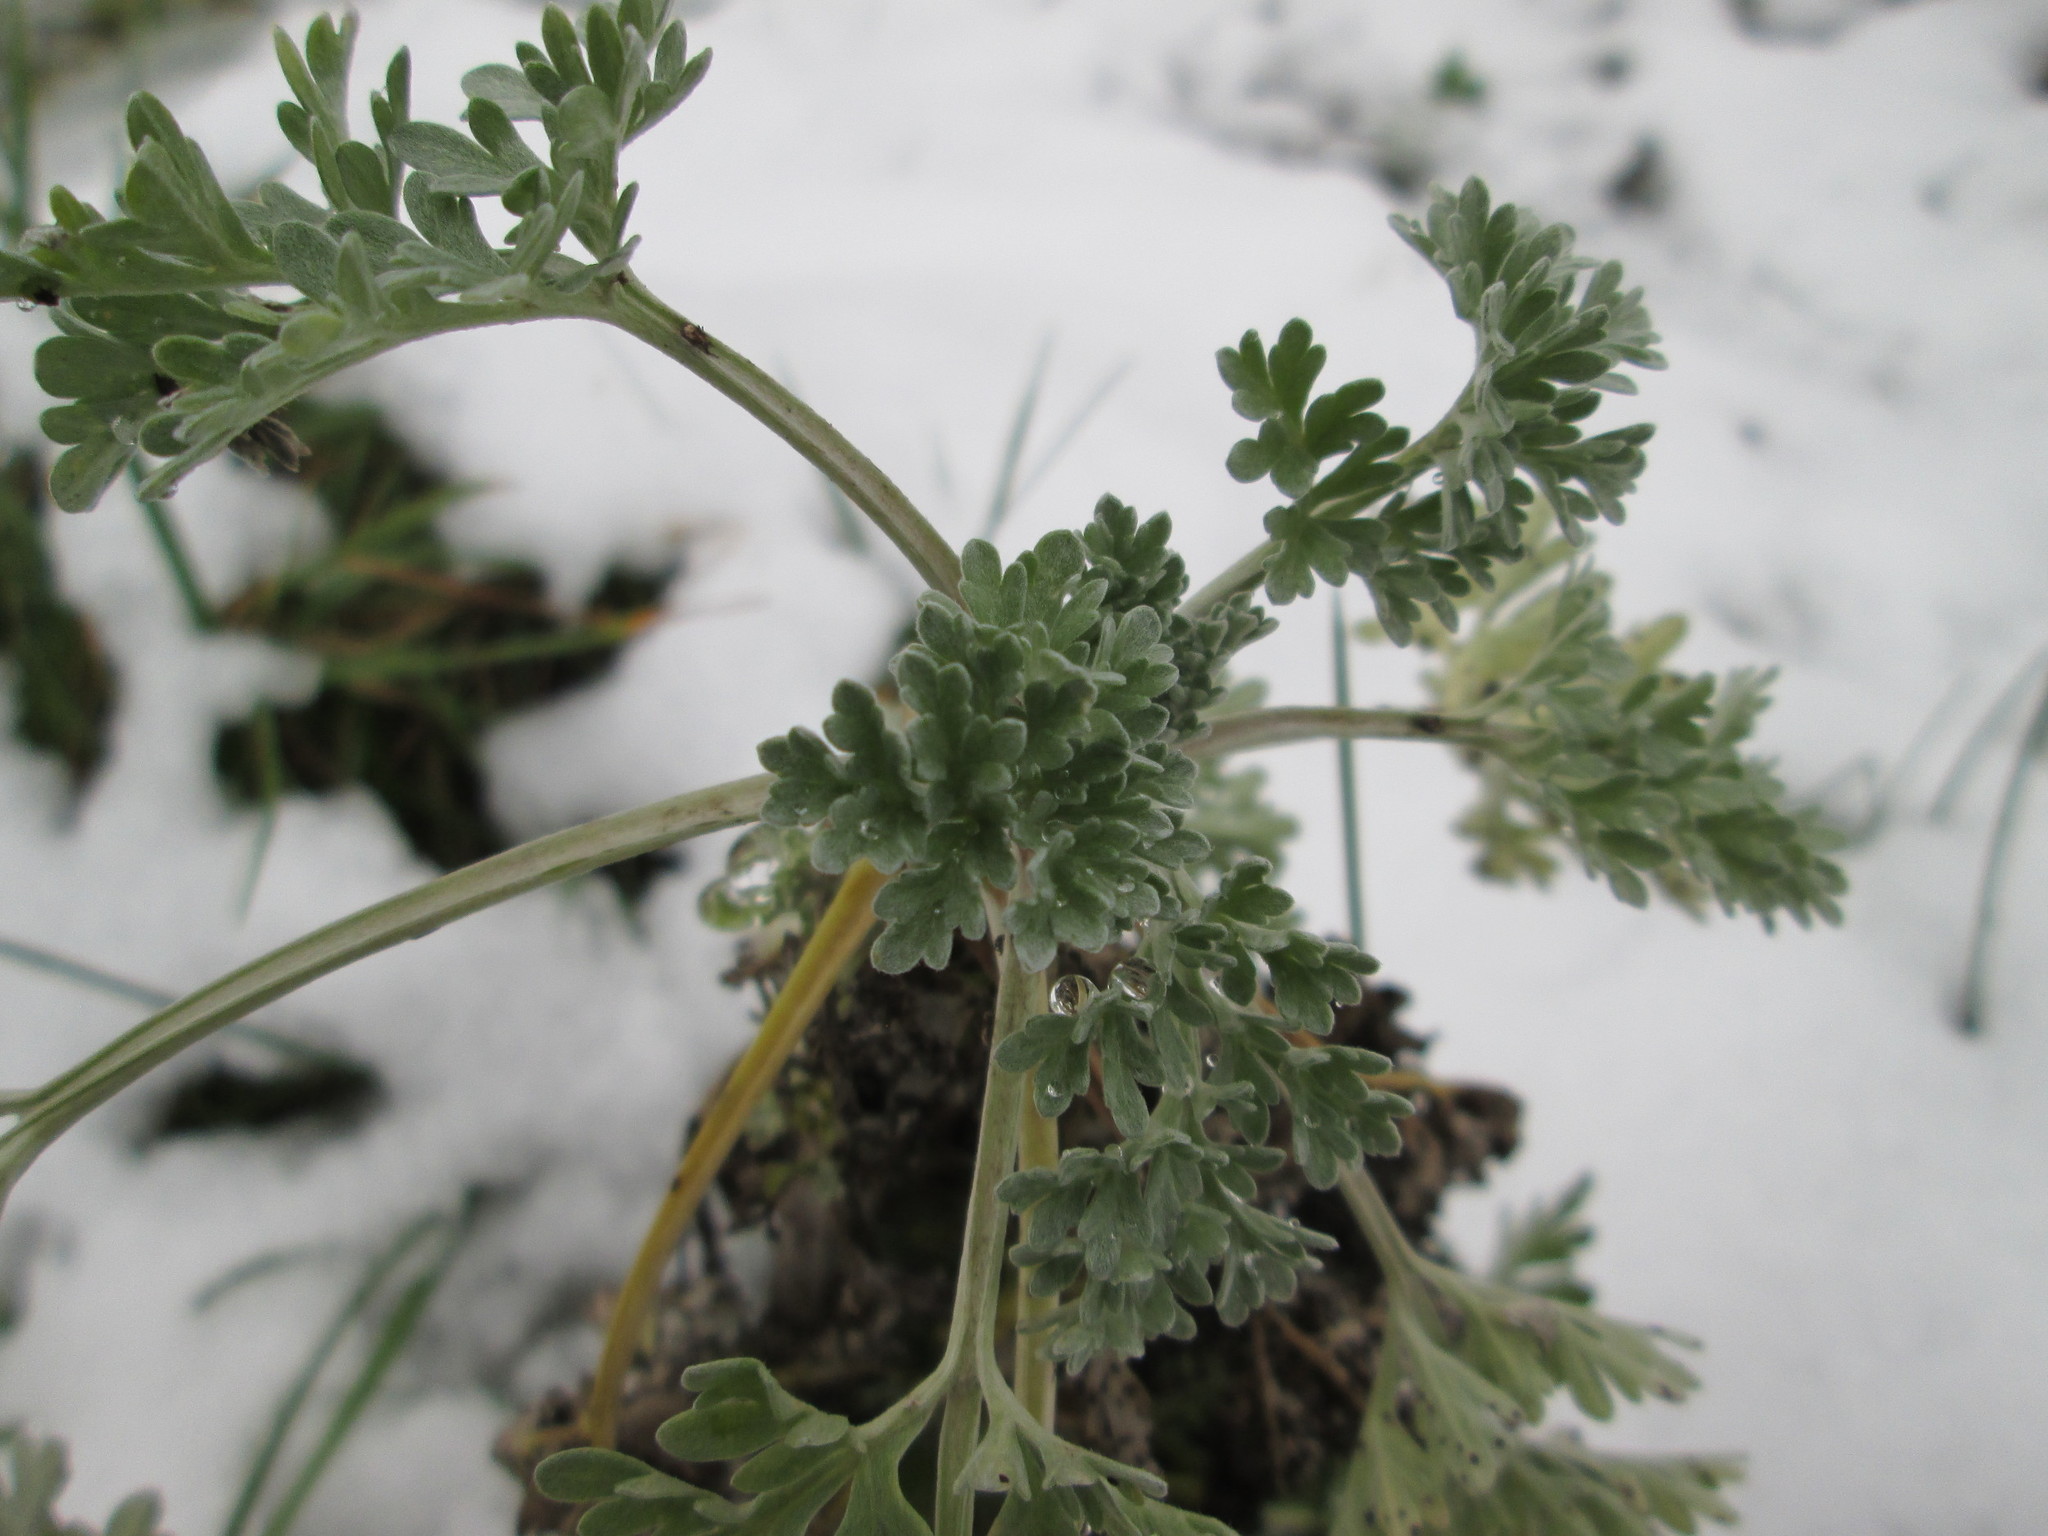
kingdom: Plantae
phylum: Tracheophyta
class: Magnoliopsida
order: Asterales
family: Asteraceae
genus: Artemisia
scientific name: Artemisia absinthium
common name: Wormwood
